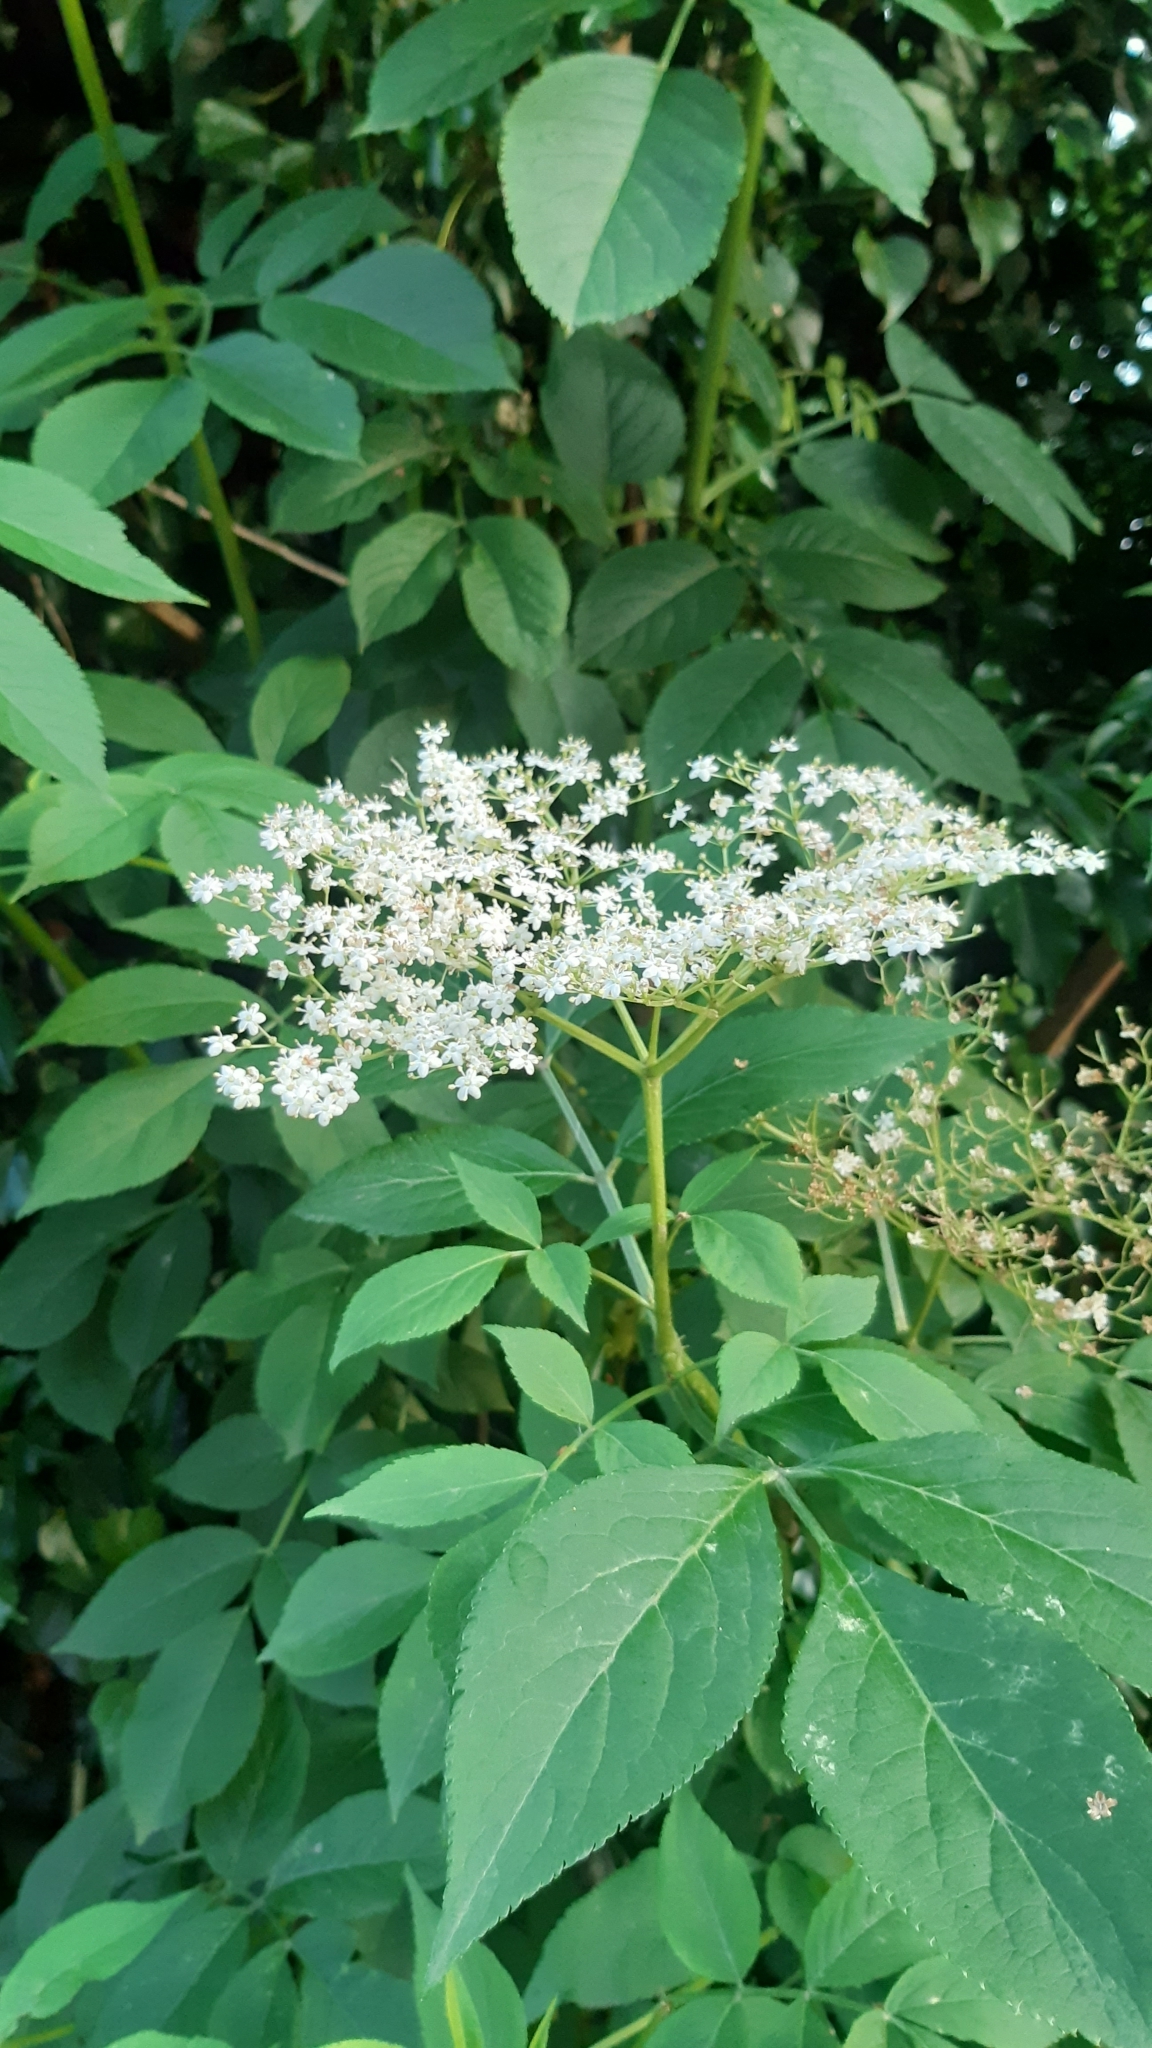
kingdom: Plantae
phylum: Tracheophyta
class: Magnoliopsida
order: Dipsacales
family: Viburnaceae
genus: Sambucus
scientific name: Sambucus nigra
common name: Elder
